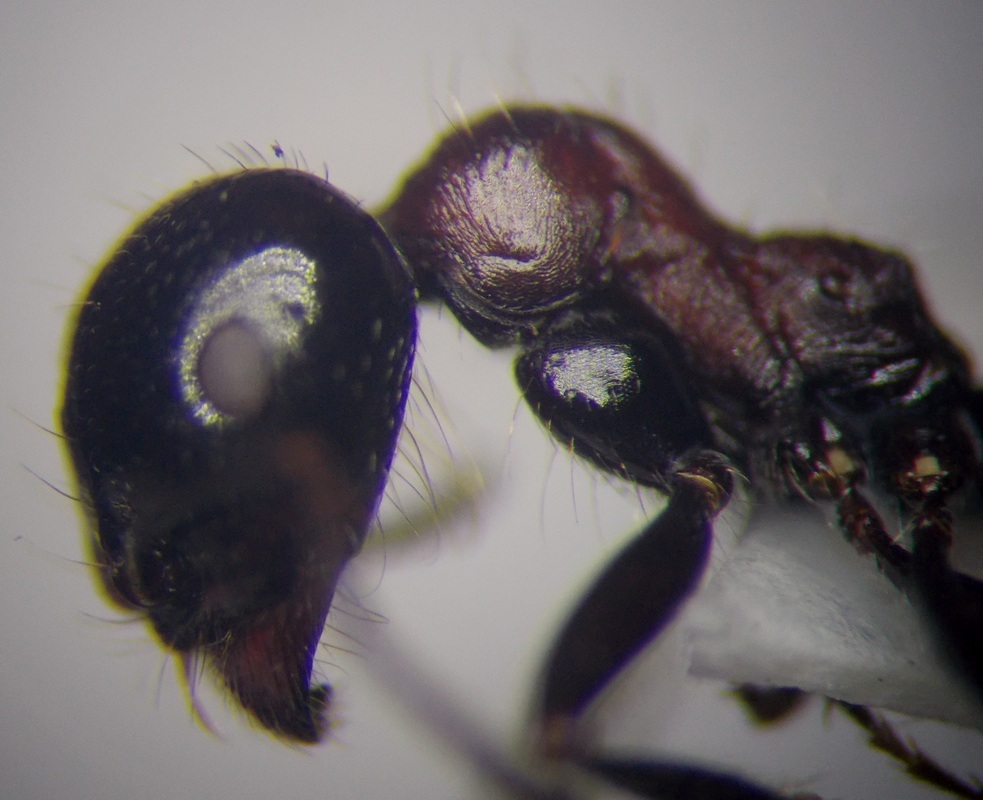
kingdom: Animalia
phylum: Arthropoda
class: Insecta
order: Hymenoptera
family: Formicidae
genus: Messor
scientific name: Messor denticulatus
